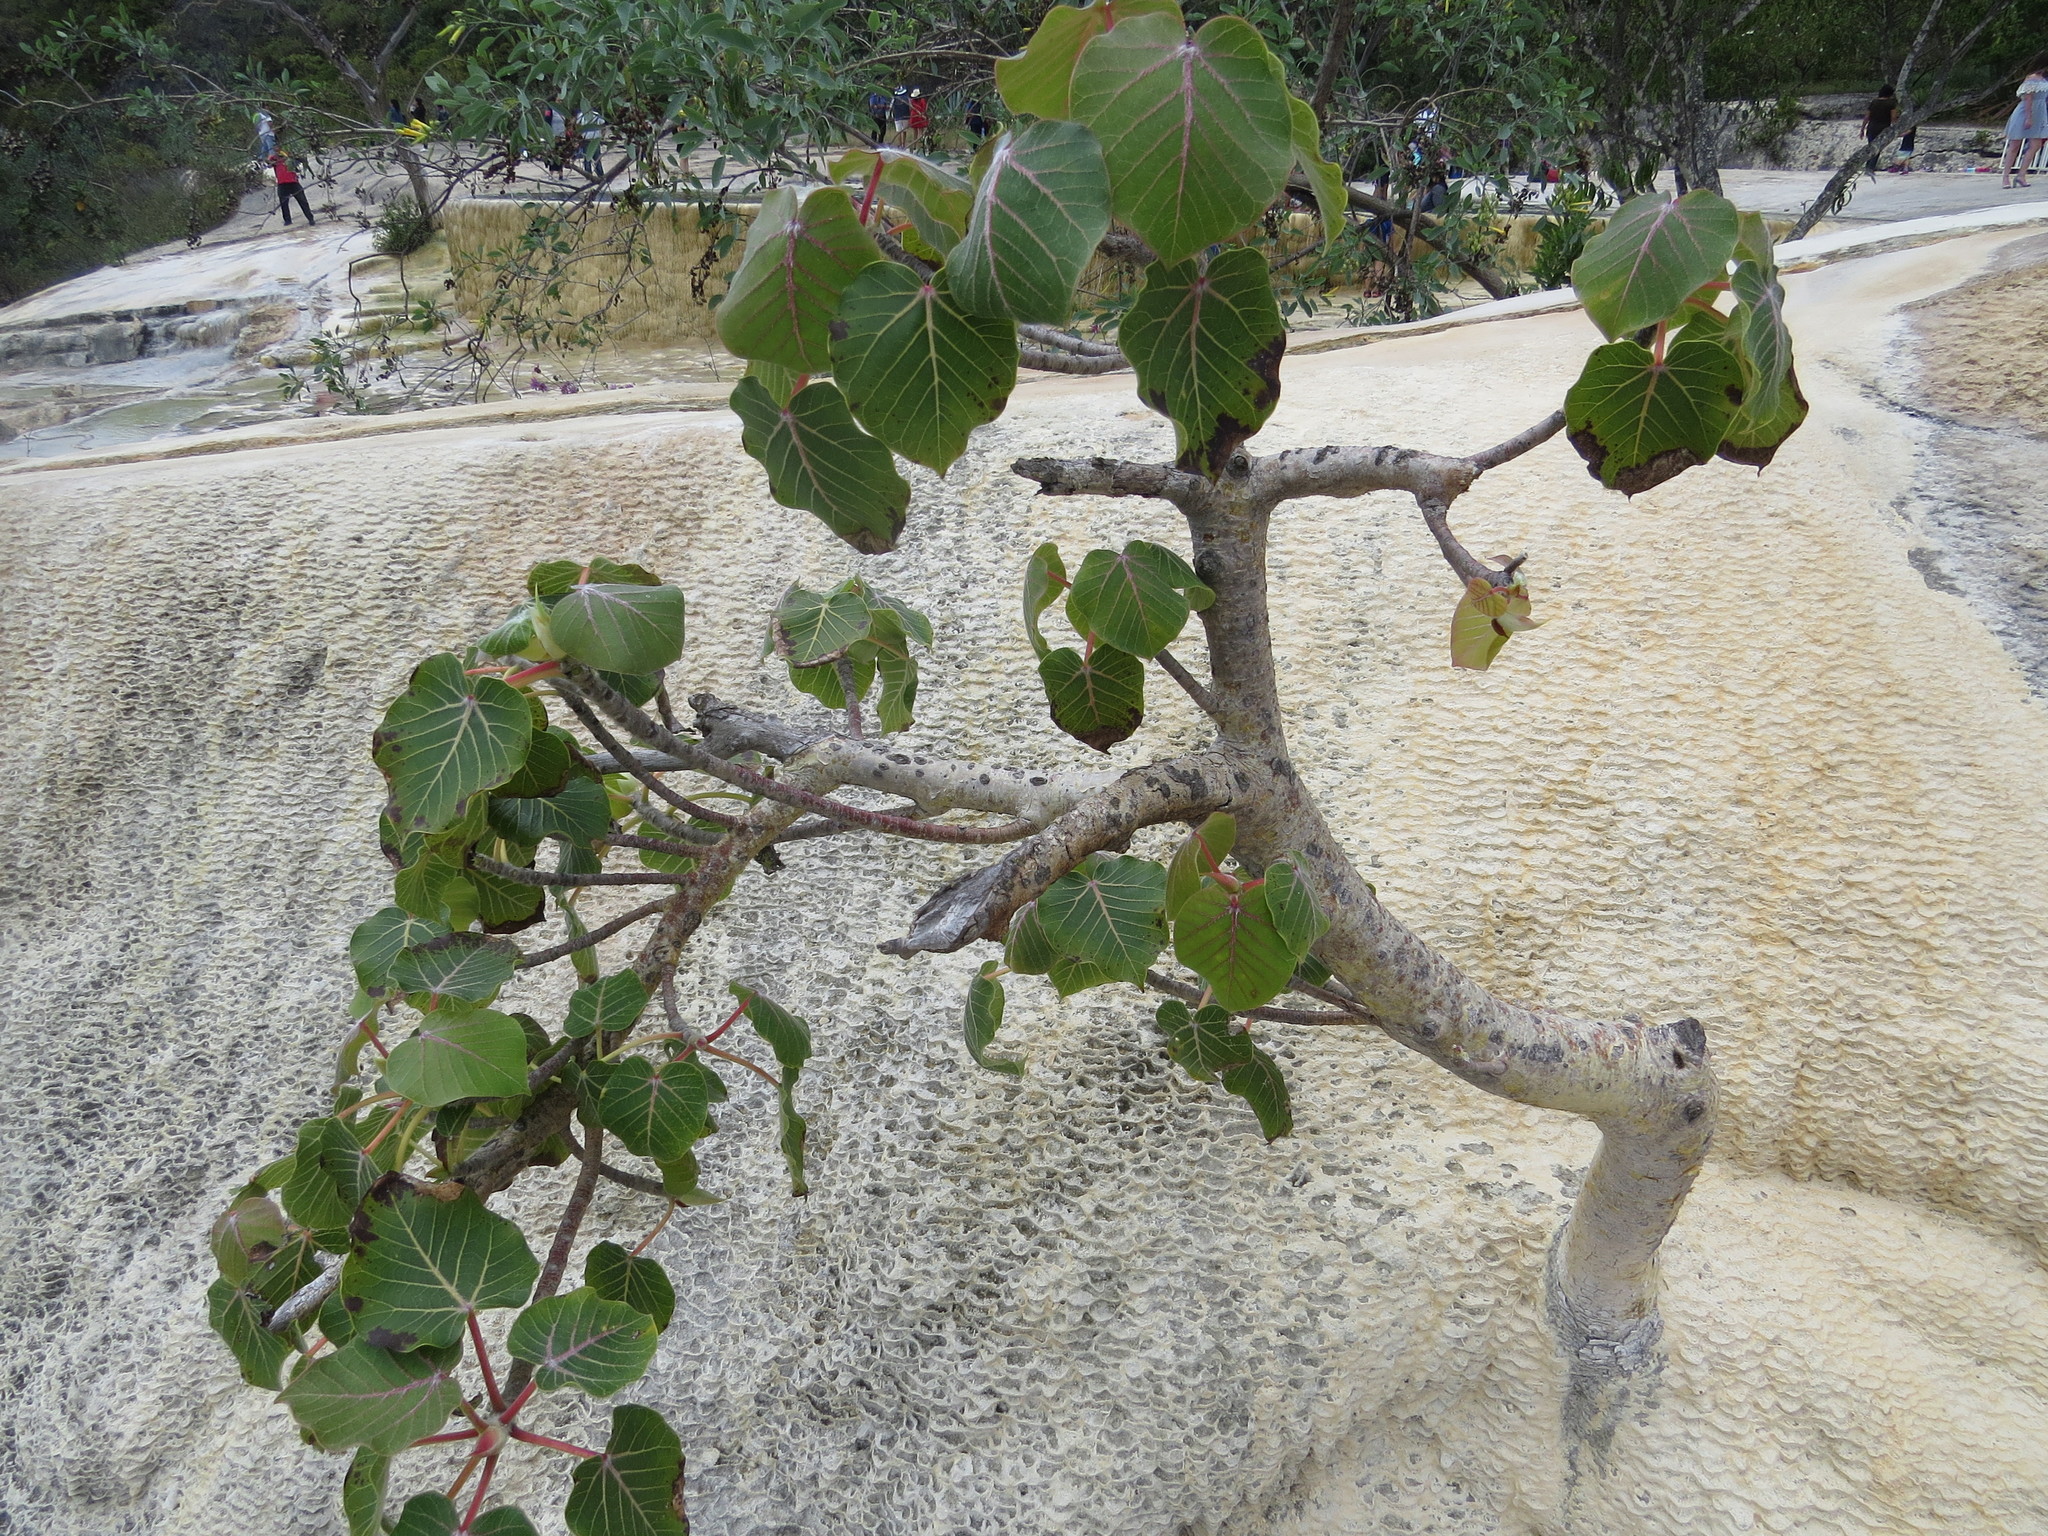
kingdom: Plantae
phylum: Tracheophyta
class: Magnoliopsida
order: Rosales
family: Moraceae
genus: Ficus
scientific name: Ficus petiolaris
